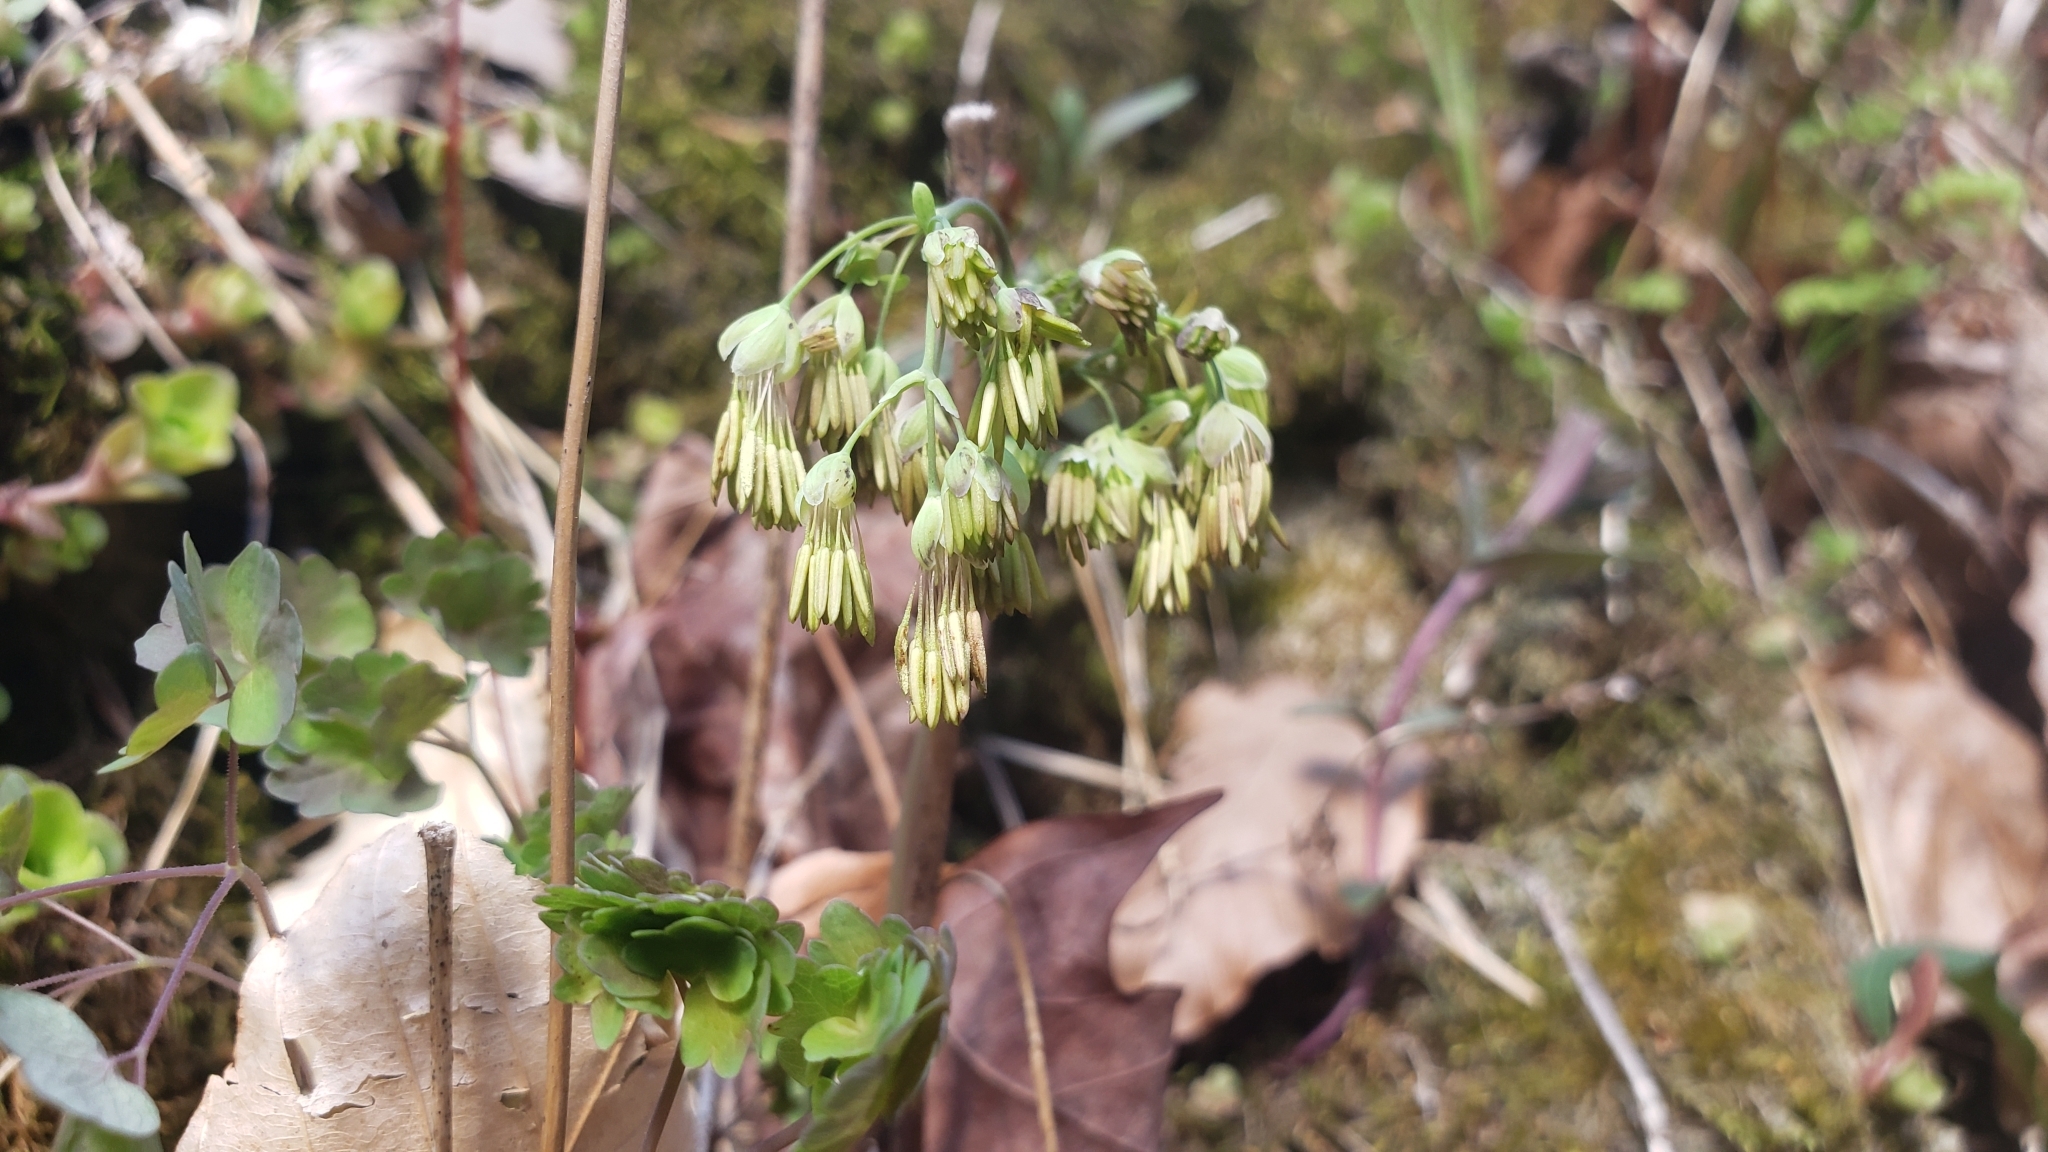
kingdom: Plantae
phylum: Tracheophyta
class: Magnoliopsida
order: Ranunculales
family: Ranunculaceae
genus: Thalictrum
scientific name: Thalictrum dioicum
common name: Early meadow-rue
